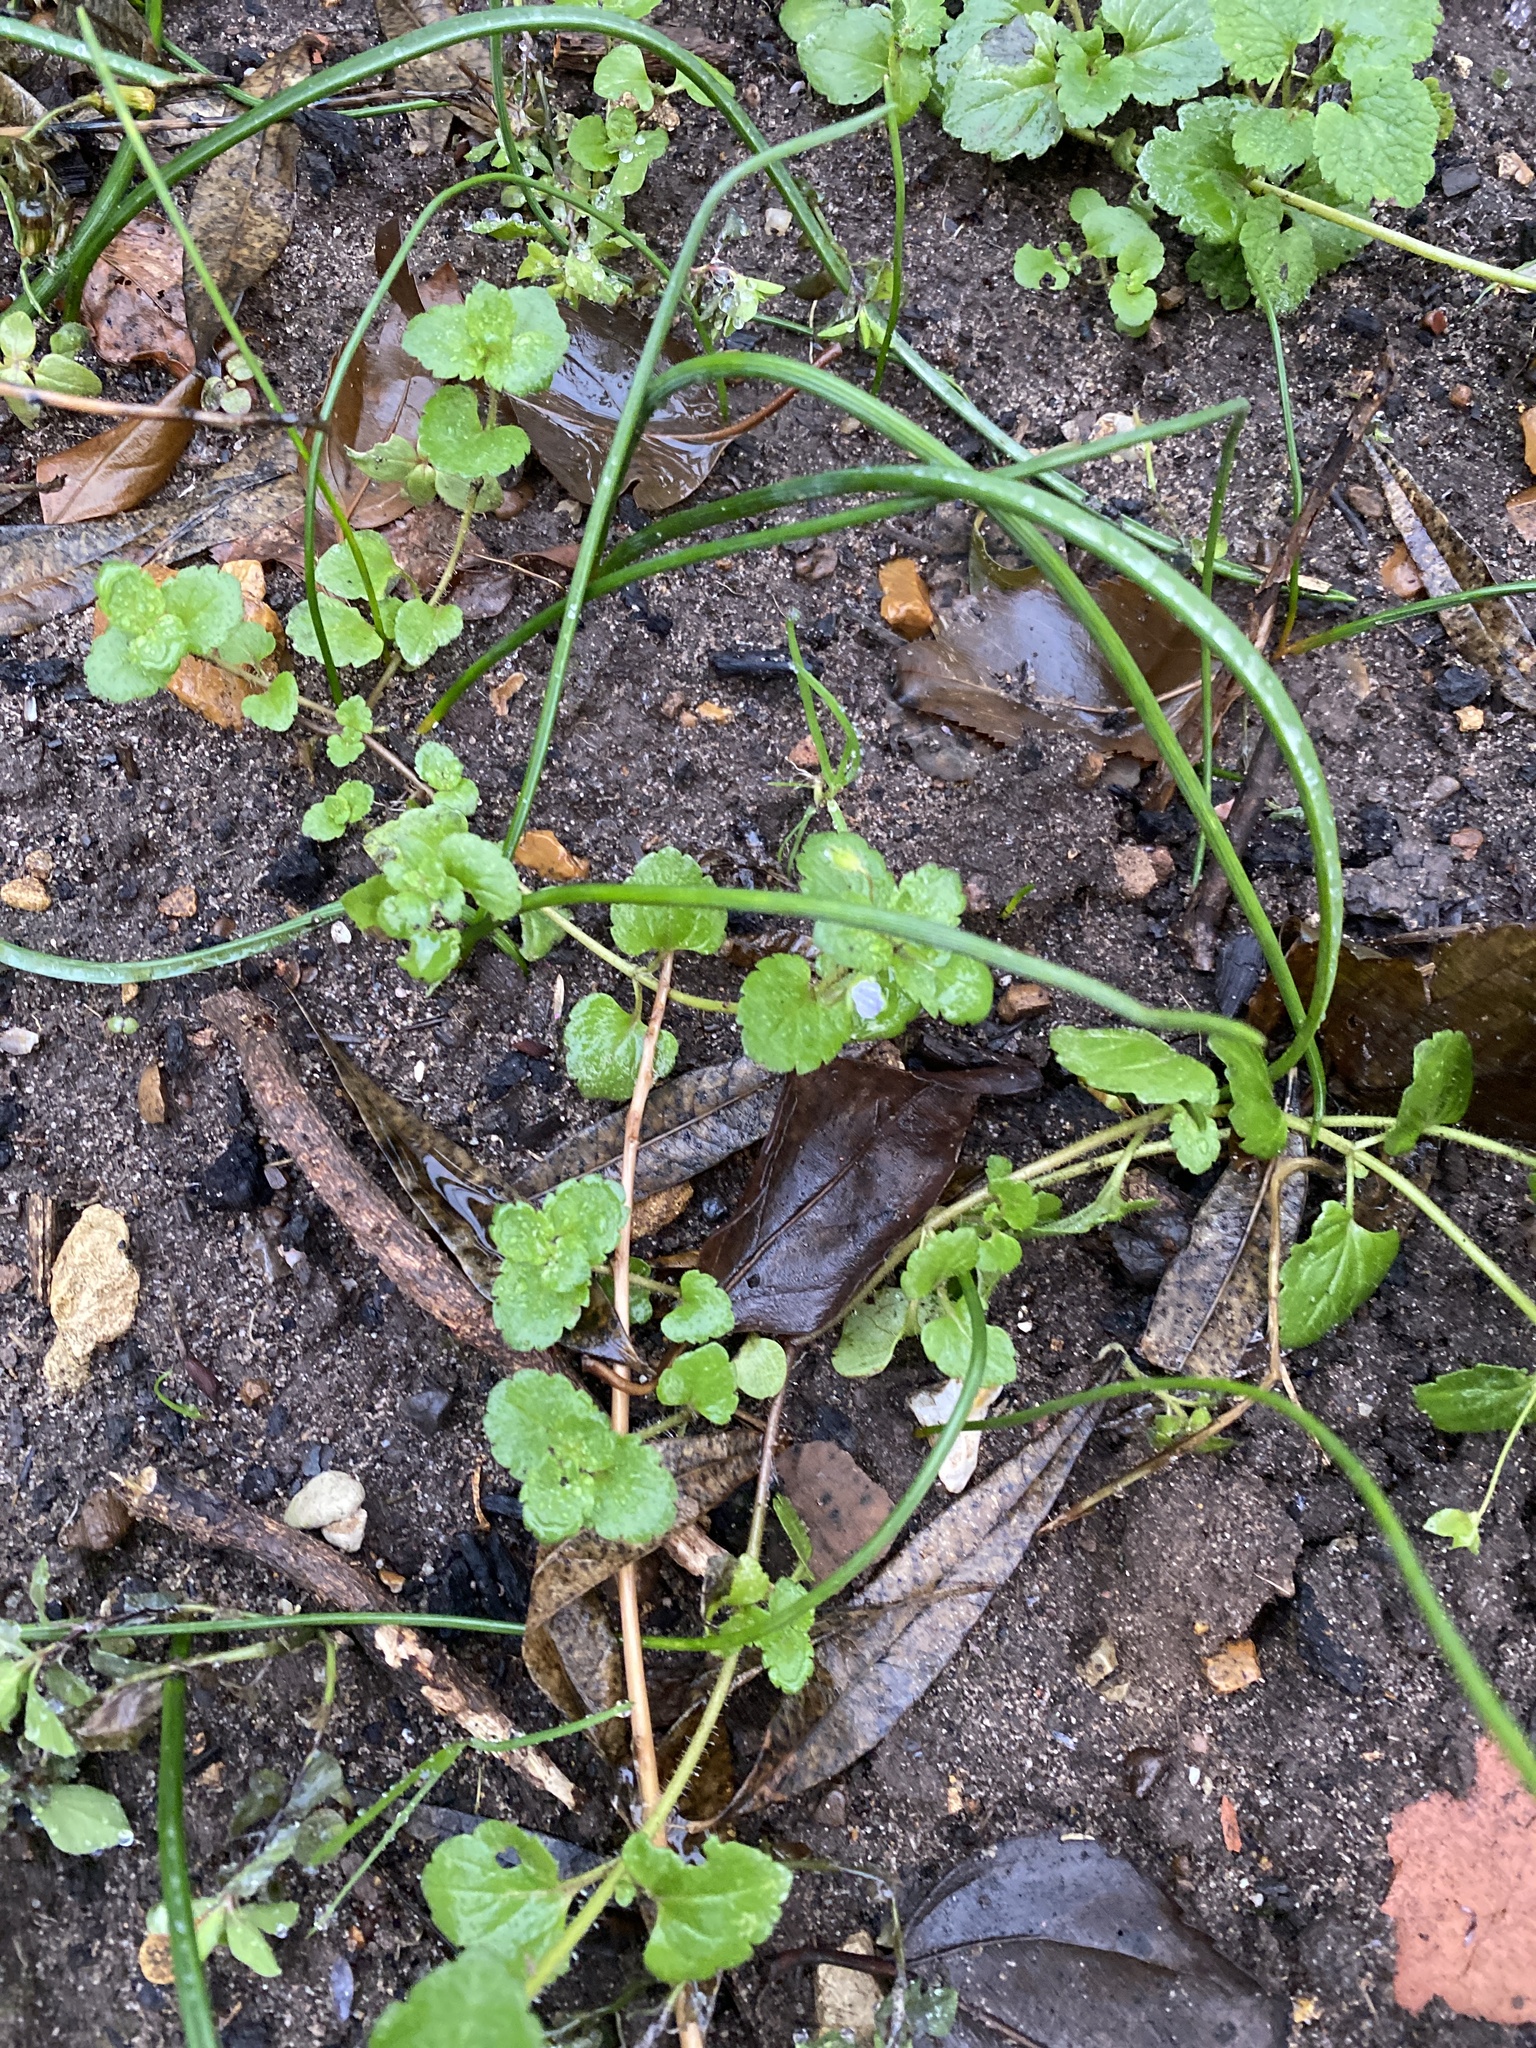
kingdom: Plantae
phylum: Tracheophyta
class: Magnoliopsida
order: Lamiales
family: Plantaginaceae
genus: Veronica
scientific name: Veronica persica
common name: Common field-speedwell
